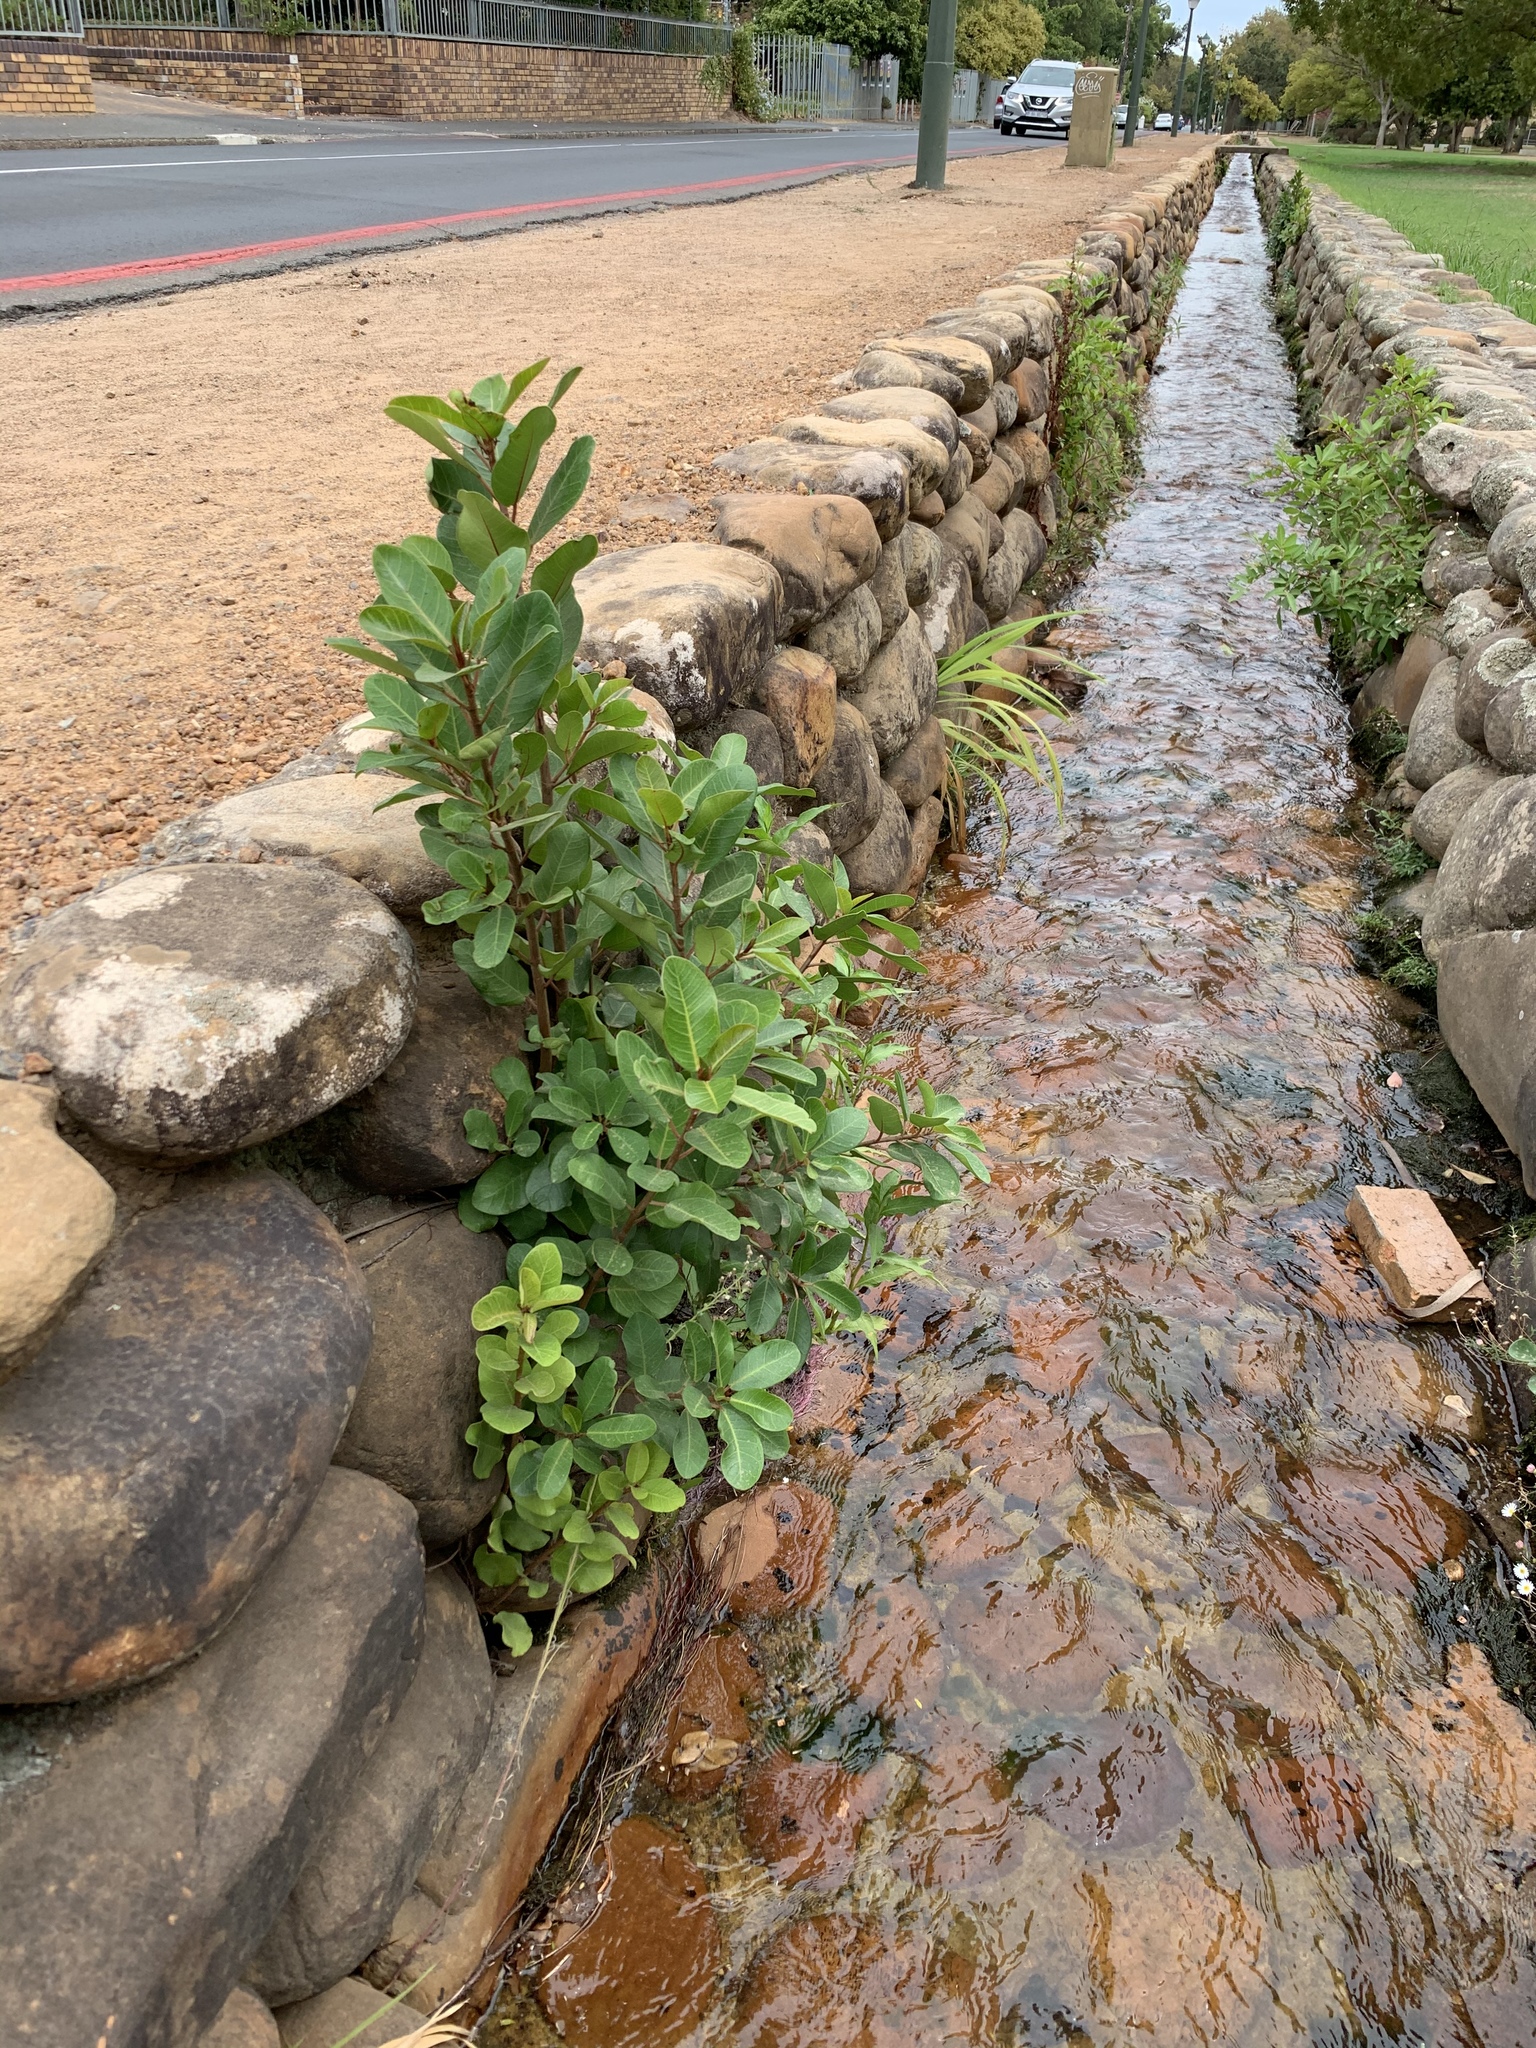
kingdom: Plantae
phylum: Tracheophyta
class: Magnoliopsida
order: Rosales
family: Moraceae
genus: Ficus
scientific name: Ficus thonningii
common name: Fig
